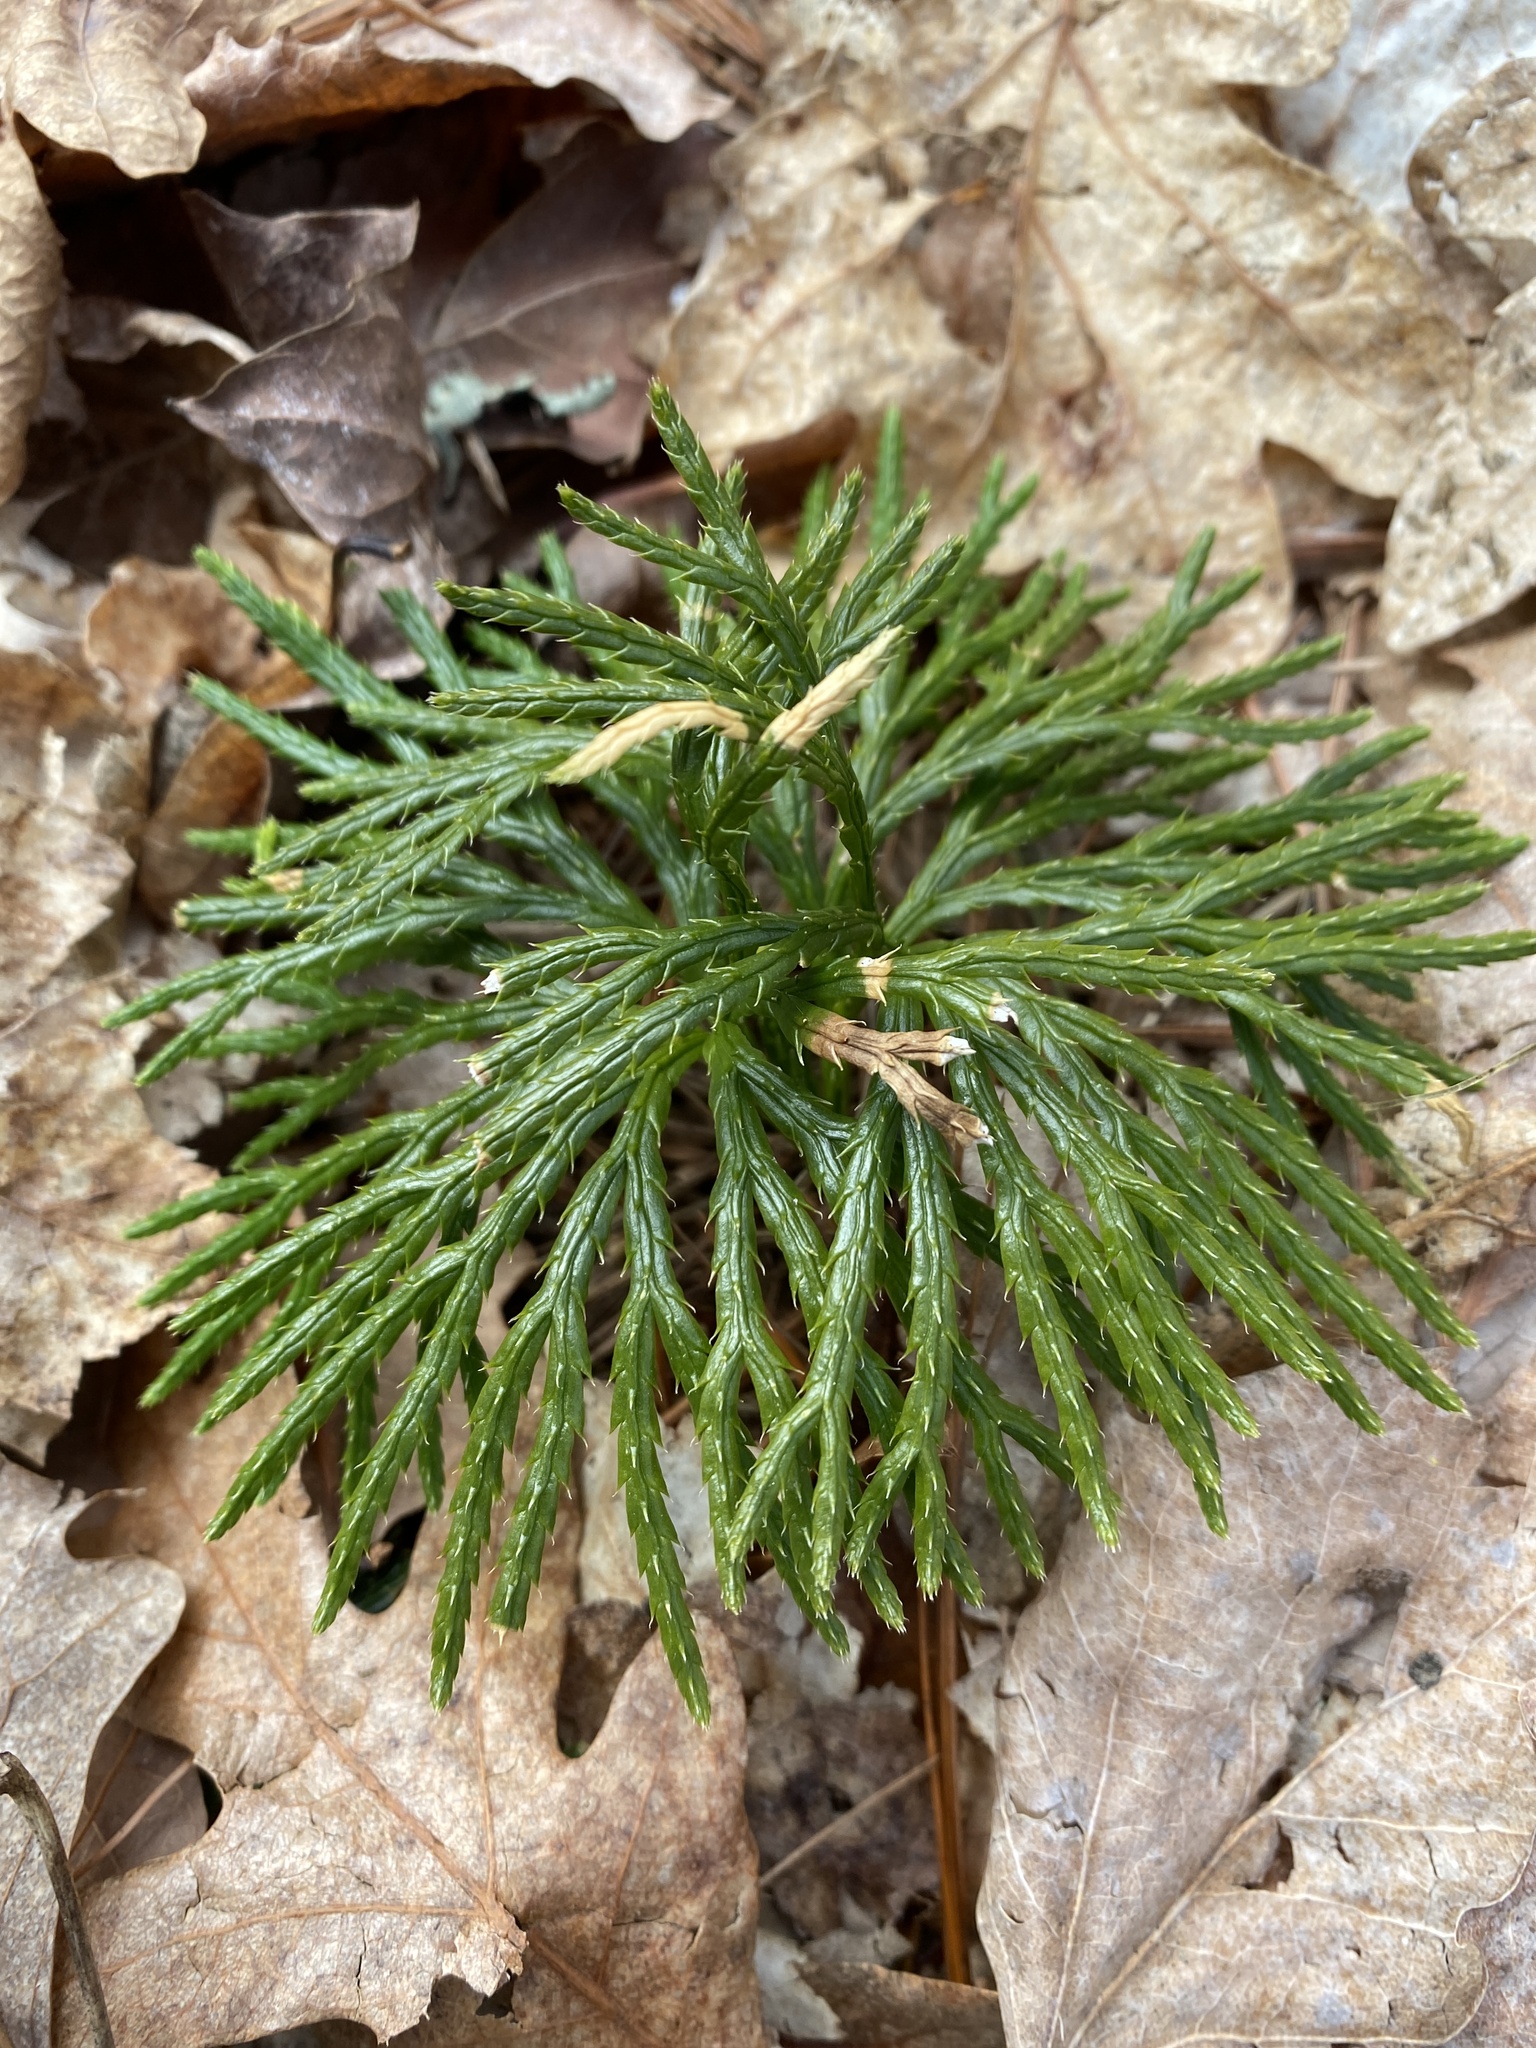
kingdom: Plantae
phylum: Tracheophyta
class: Lycopodiopsida
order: Lycopodiales
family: Lycopodiaceae
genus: Diphasiastrum
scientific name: Diphasiastrum digitatum
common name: Southern running-pine
